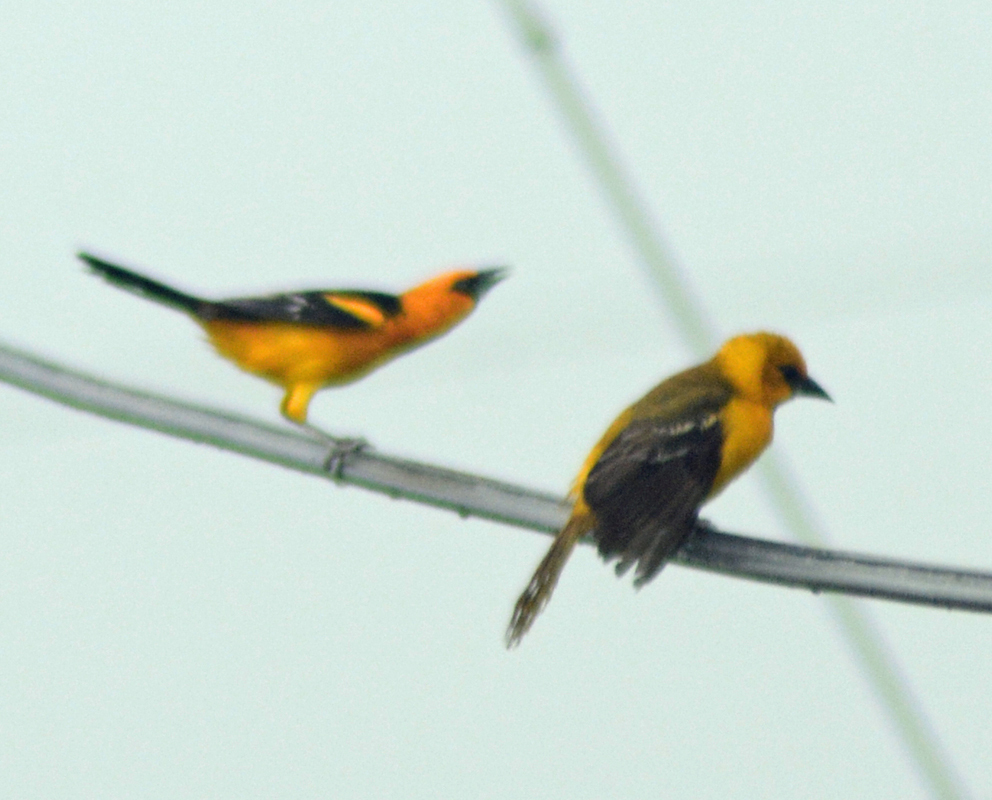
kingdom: Animalia
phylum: Chordata
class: Aves
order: Passeriformes
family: Icteridae
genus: Icterus
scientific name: Icterus gularis
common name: Altamira oriole
